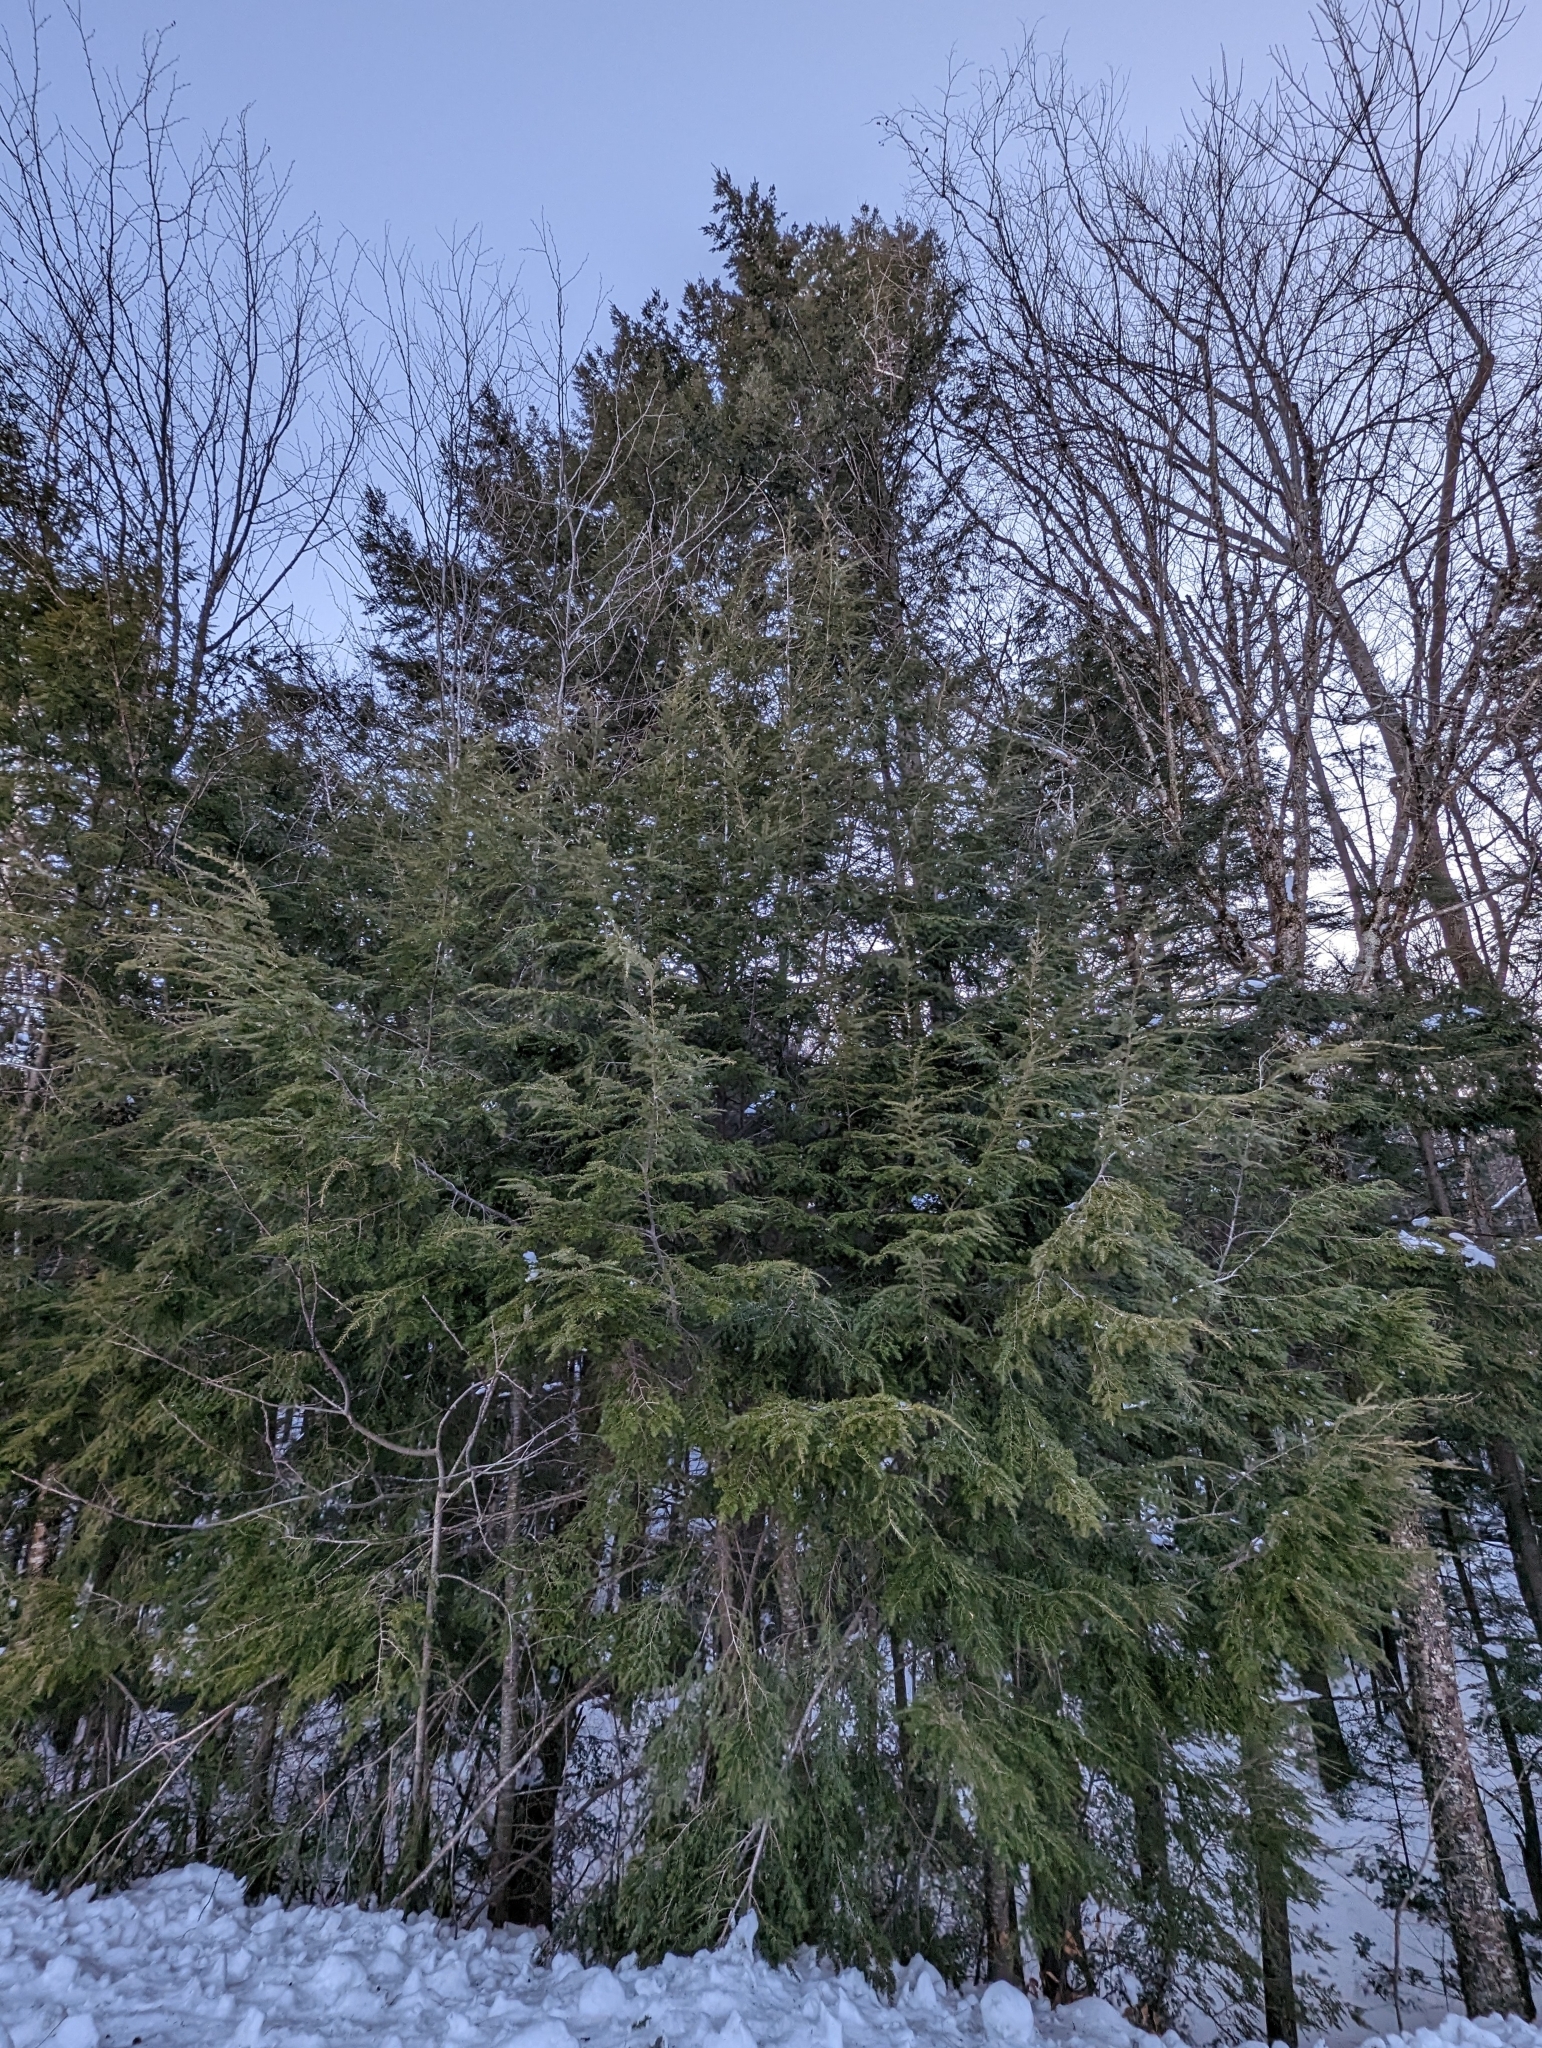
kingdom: Plantae
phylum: Tracheophyta
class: Pinopsida
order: Pinales
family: Pinaceae
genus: Tsuga
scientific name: Tsuga canadensis
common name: Eastern hemlock
